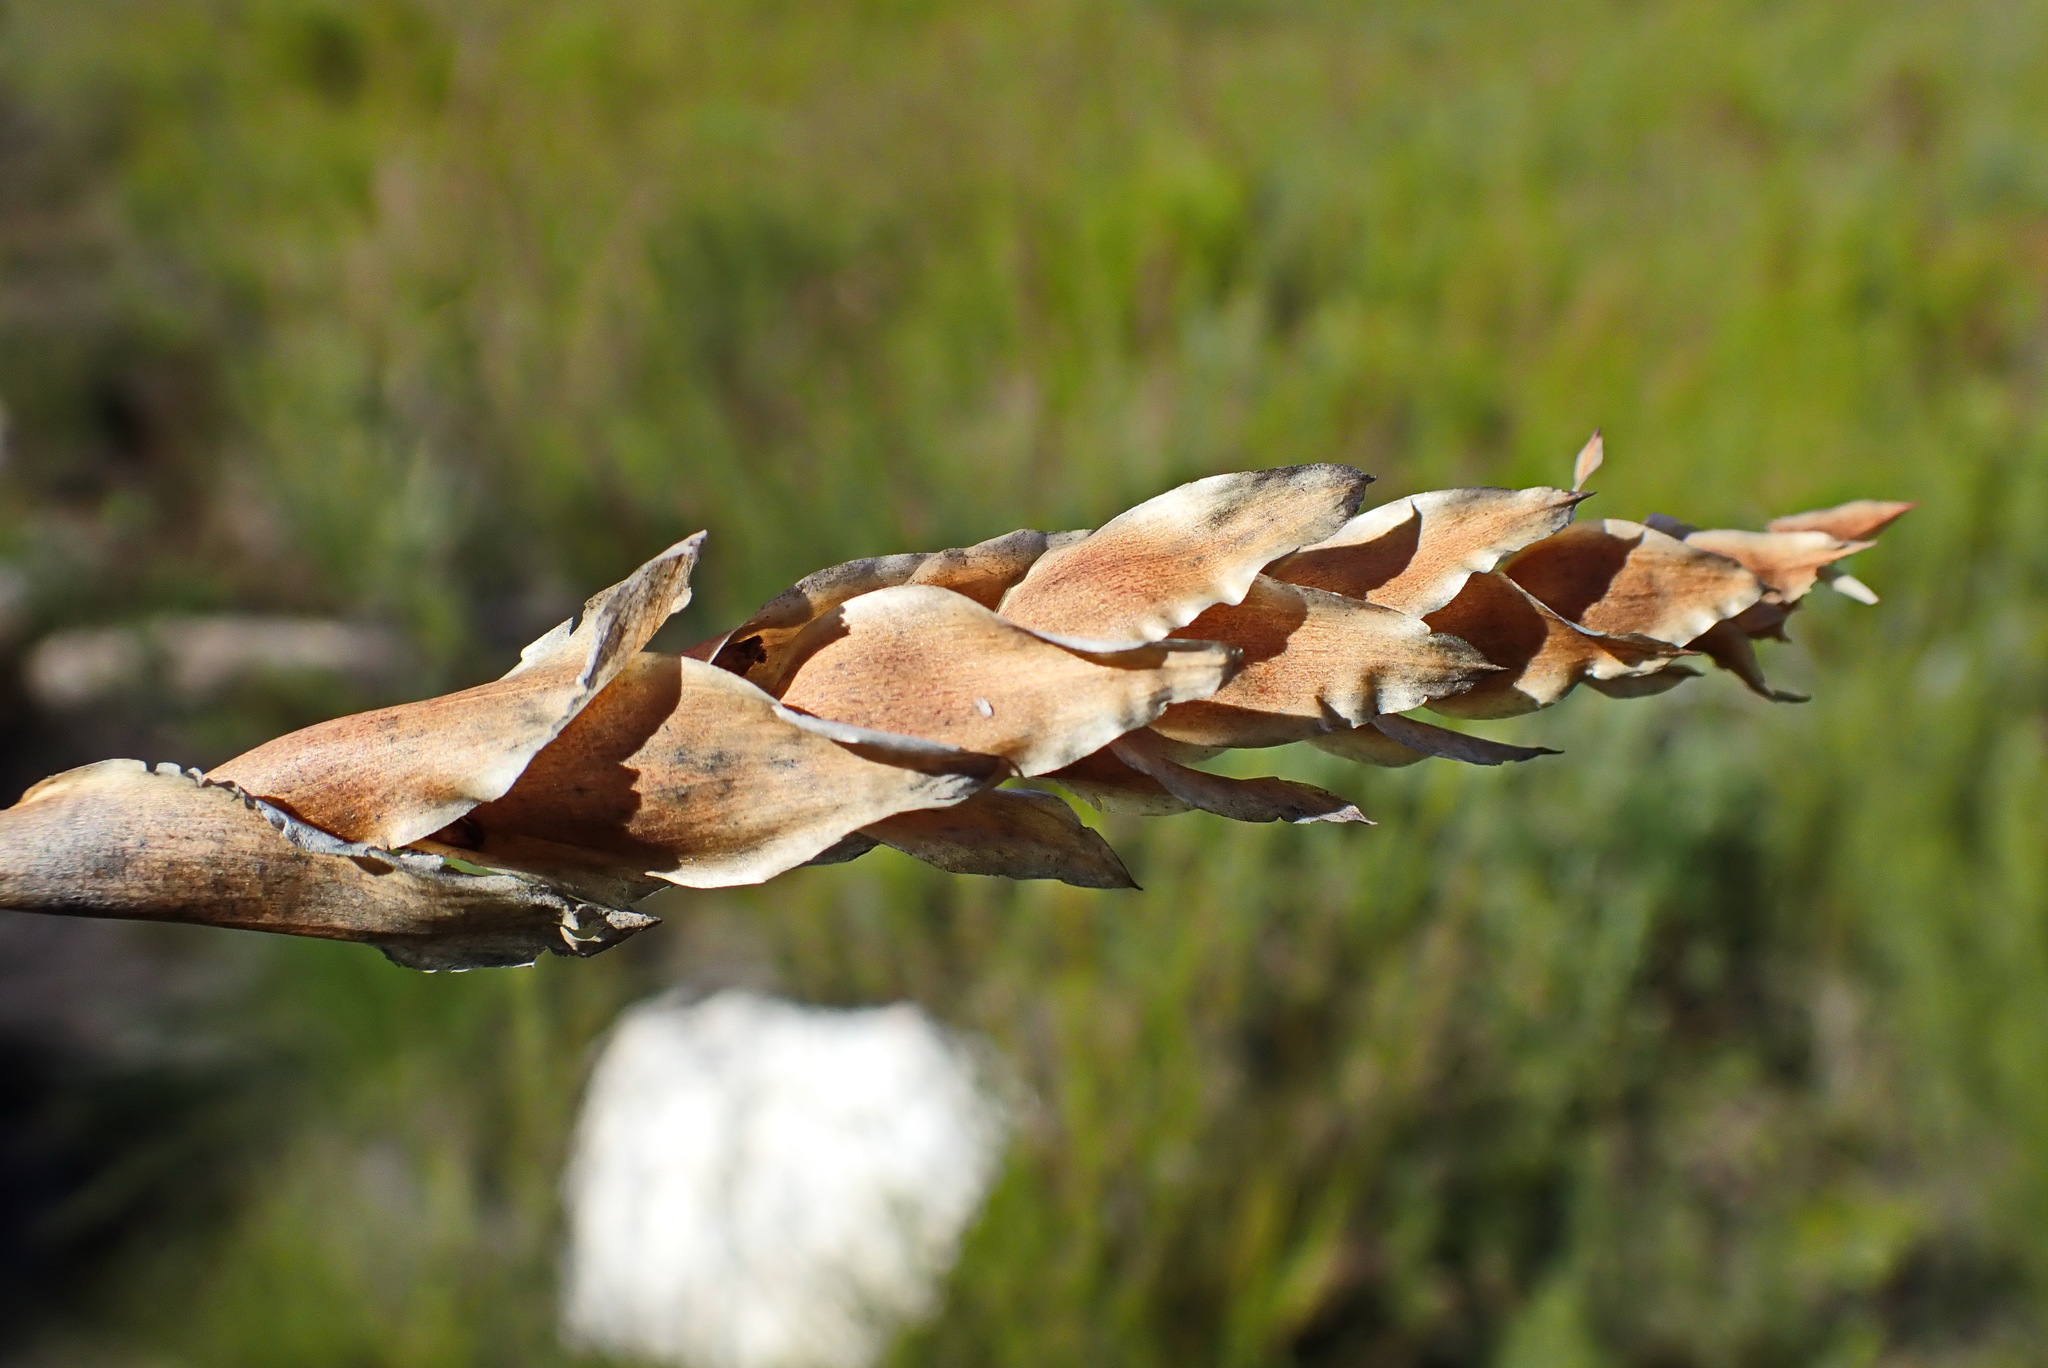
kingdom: Plantae
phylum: Tracheophyta
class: Liliopsida
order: Poales
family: Restionaceae
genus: Elegia
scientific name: Elegia fistulosa
